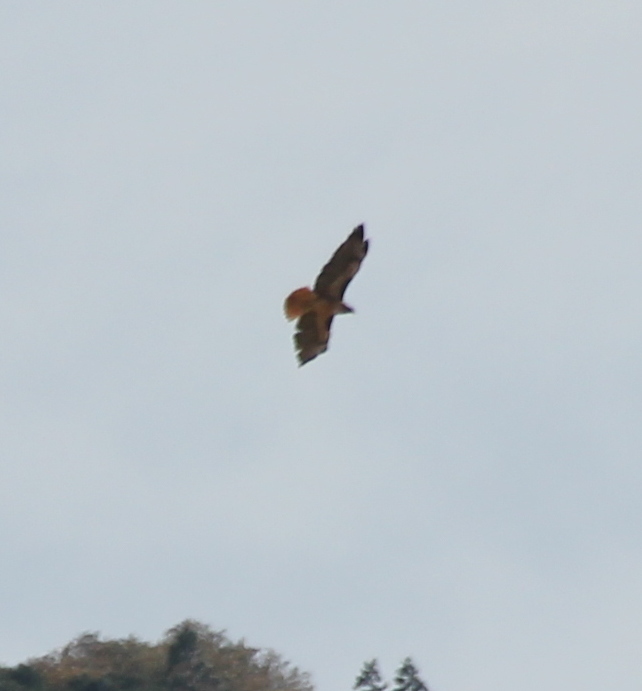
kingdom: Animalia
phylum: Chordata
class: Aves
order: Accipitriformes
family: Accipitridae
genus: Buteo
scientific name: Buteo jamaicensis
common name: Red-tailed hawk
